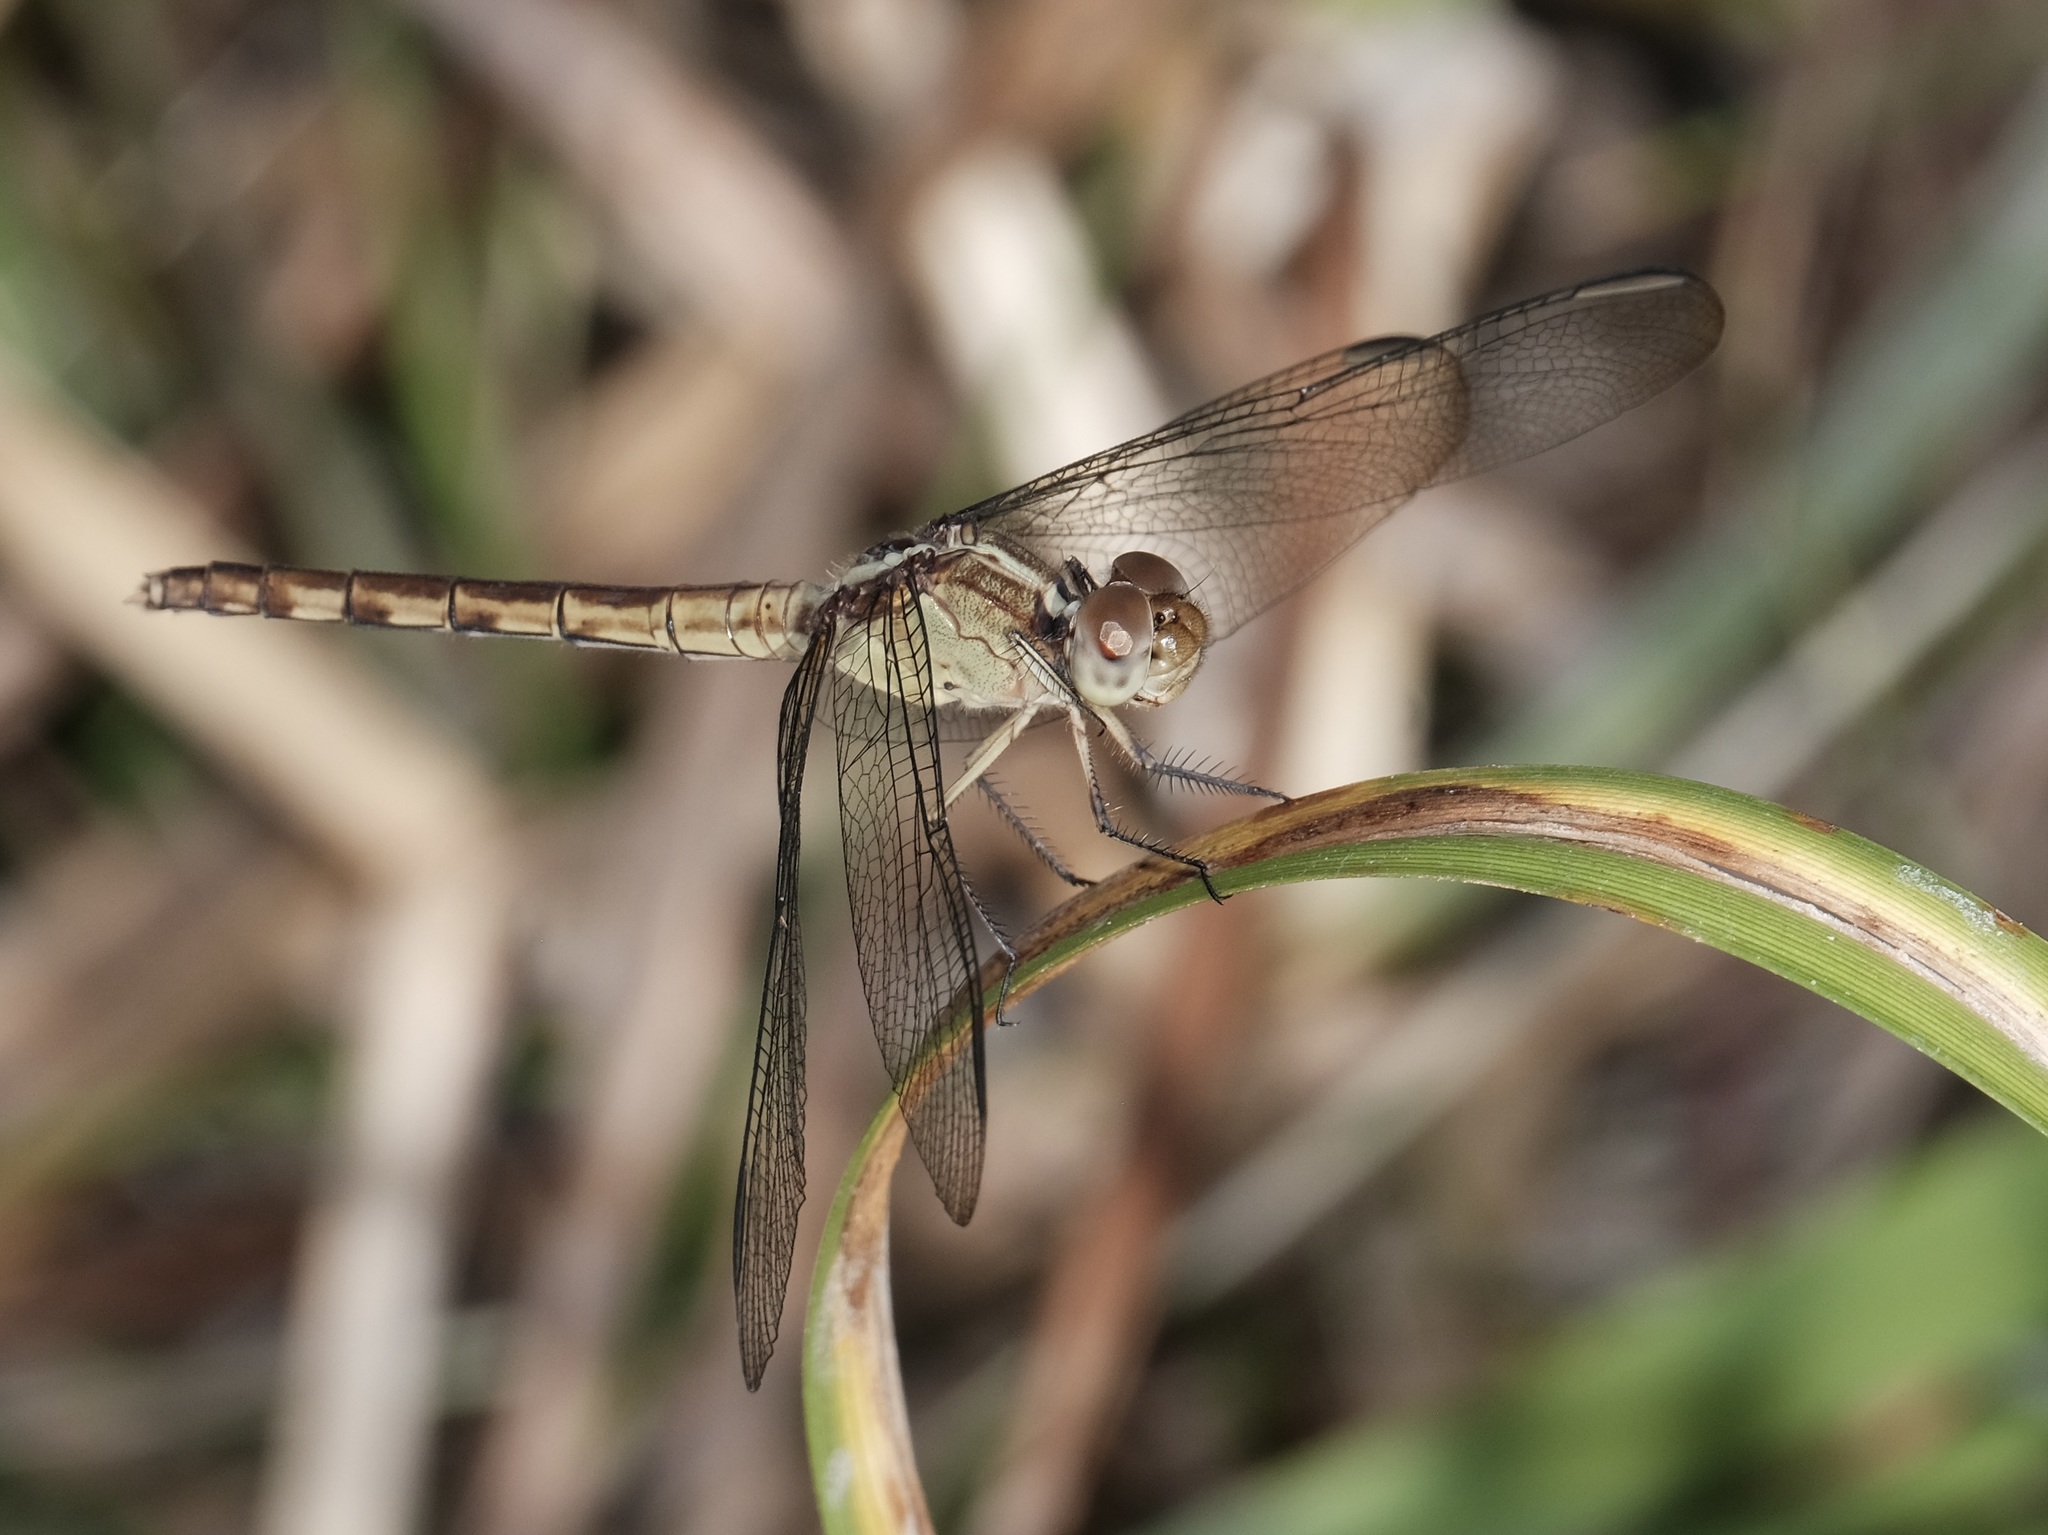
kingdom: Animalia
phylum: Arthropoda
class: Insecta
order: Odonata
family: Libellulidae
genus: Erythrodiplax
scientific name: Erythrodiplax umbrata
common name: Band-winged dragonlet
